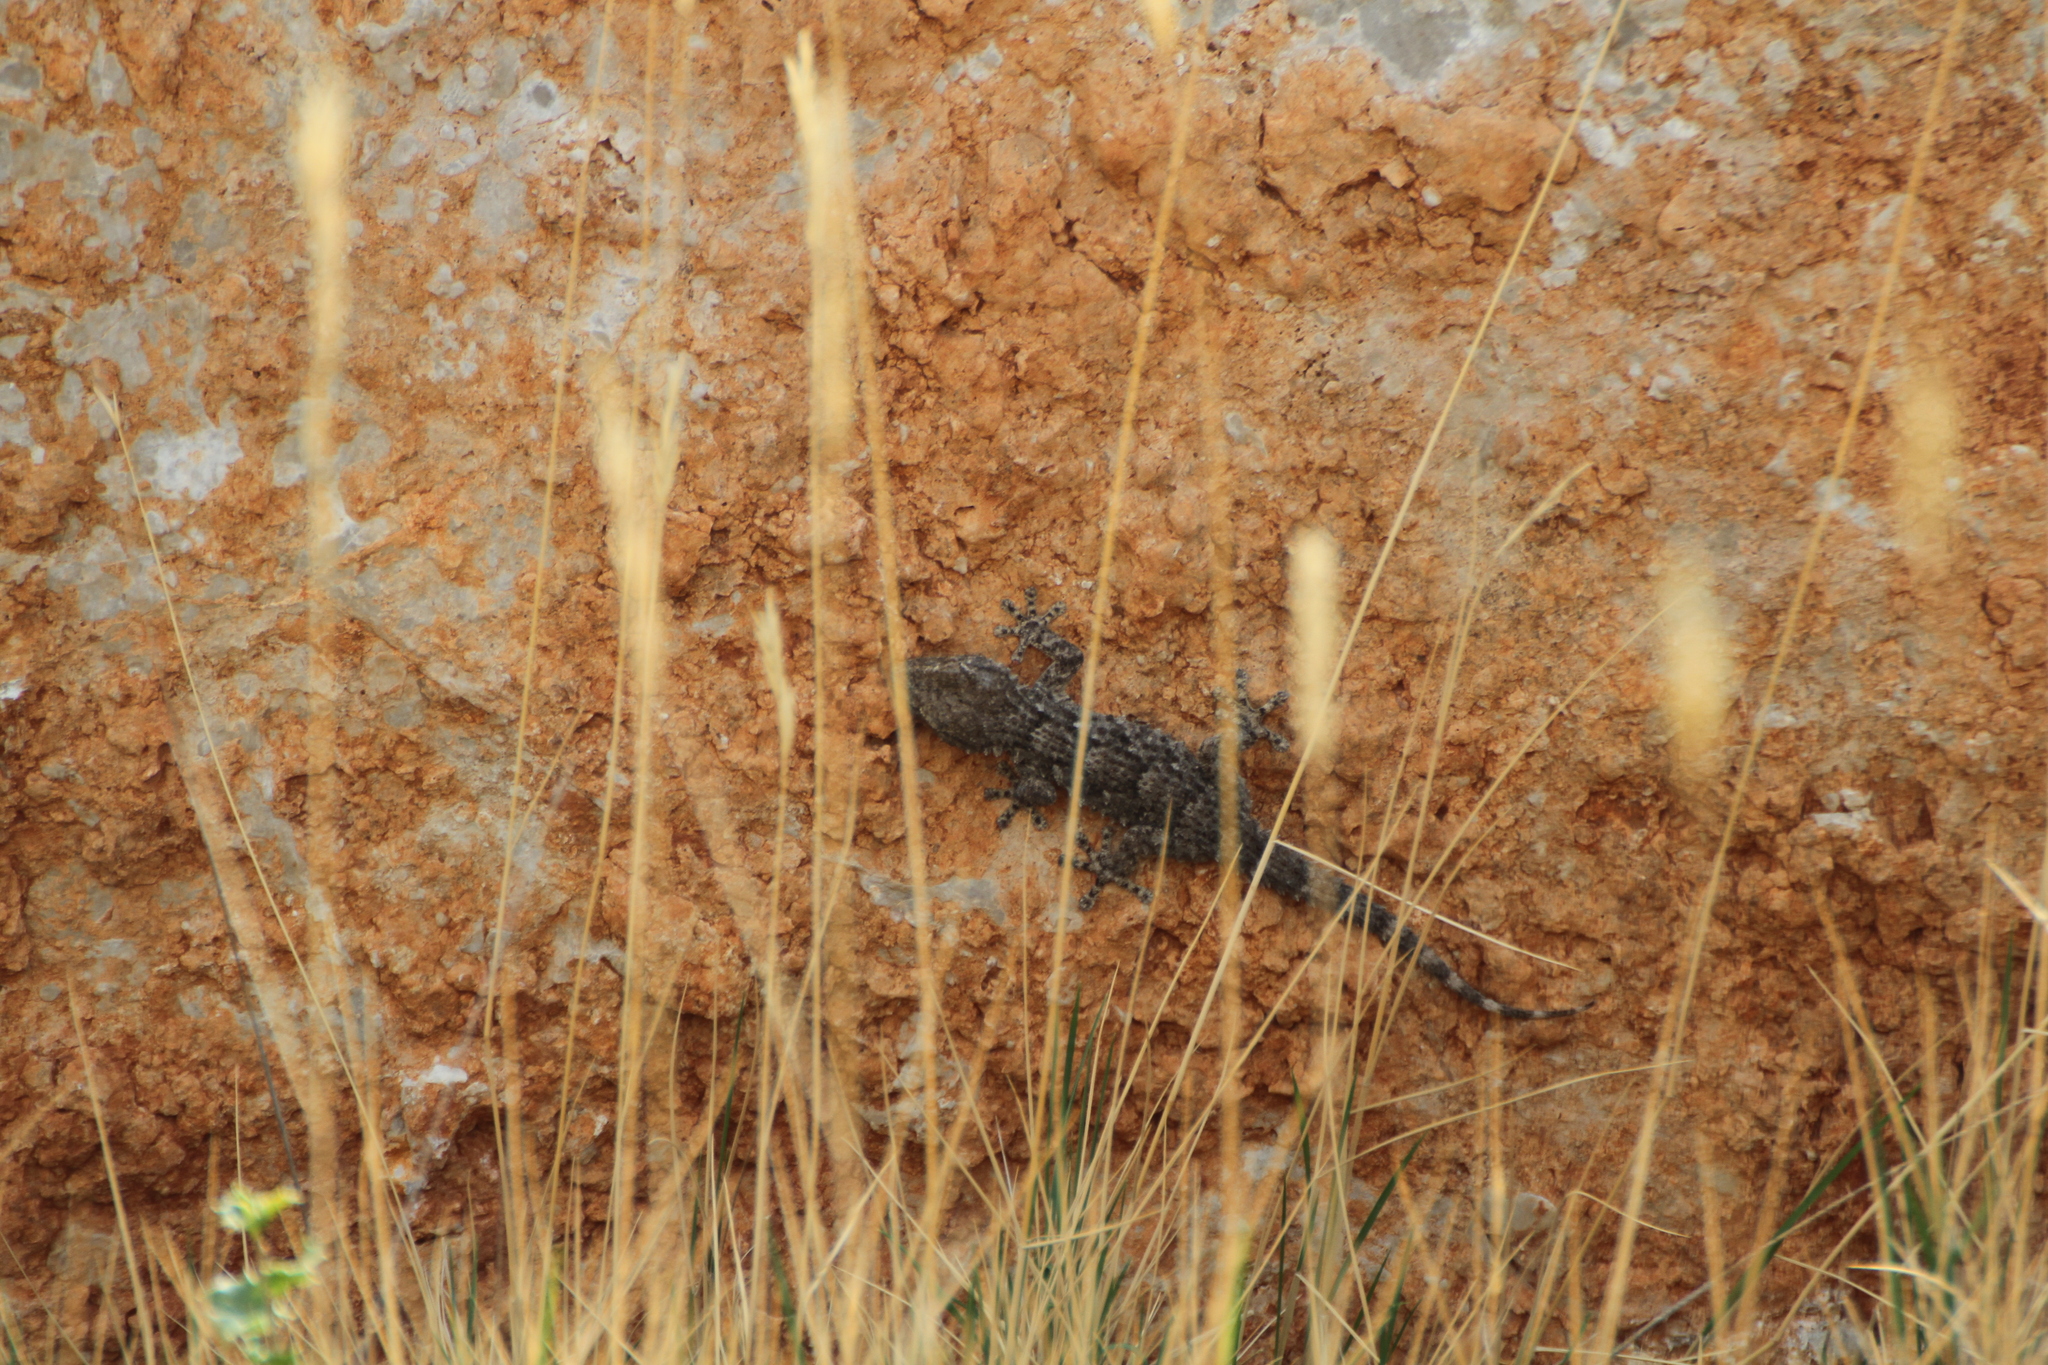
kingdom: Animalia
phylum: Chordata
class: Squamata
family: Phyllodactylidae
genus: Tarentola
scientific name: Tarentola mauritanica
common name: Moorish gecko
